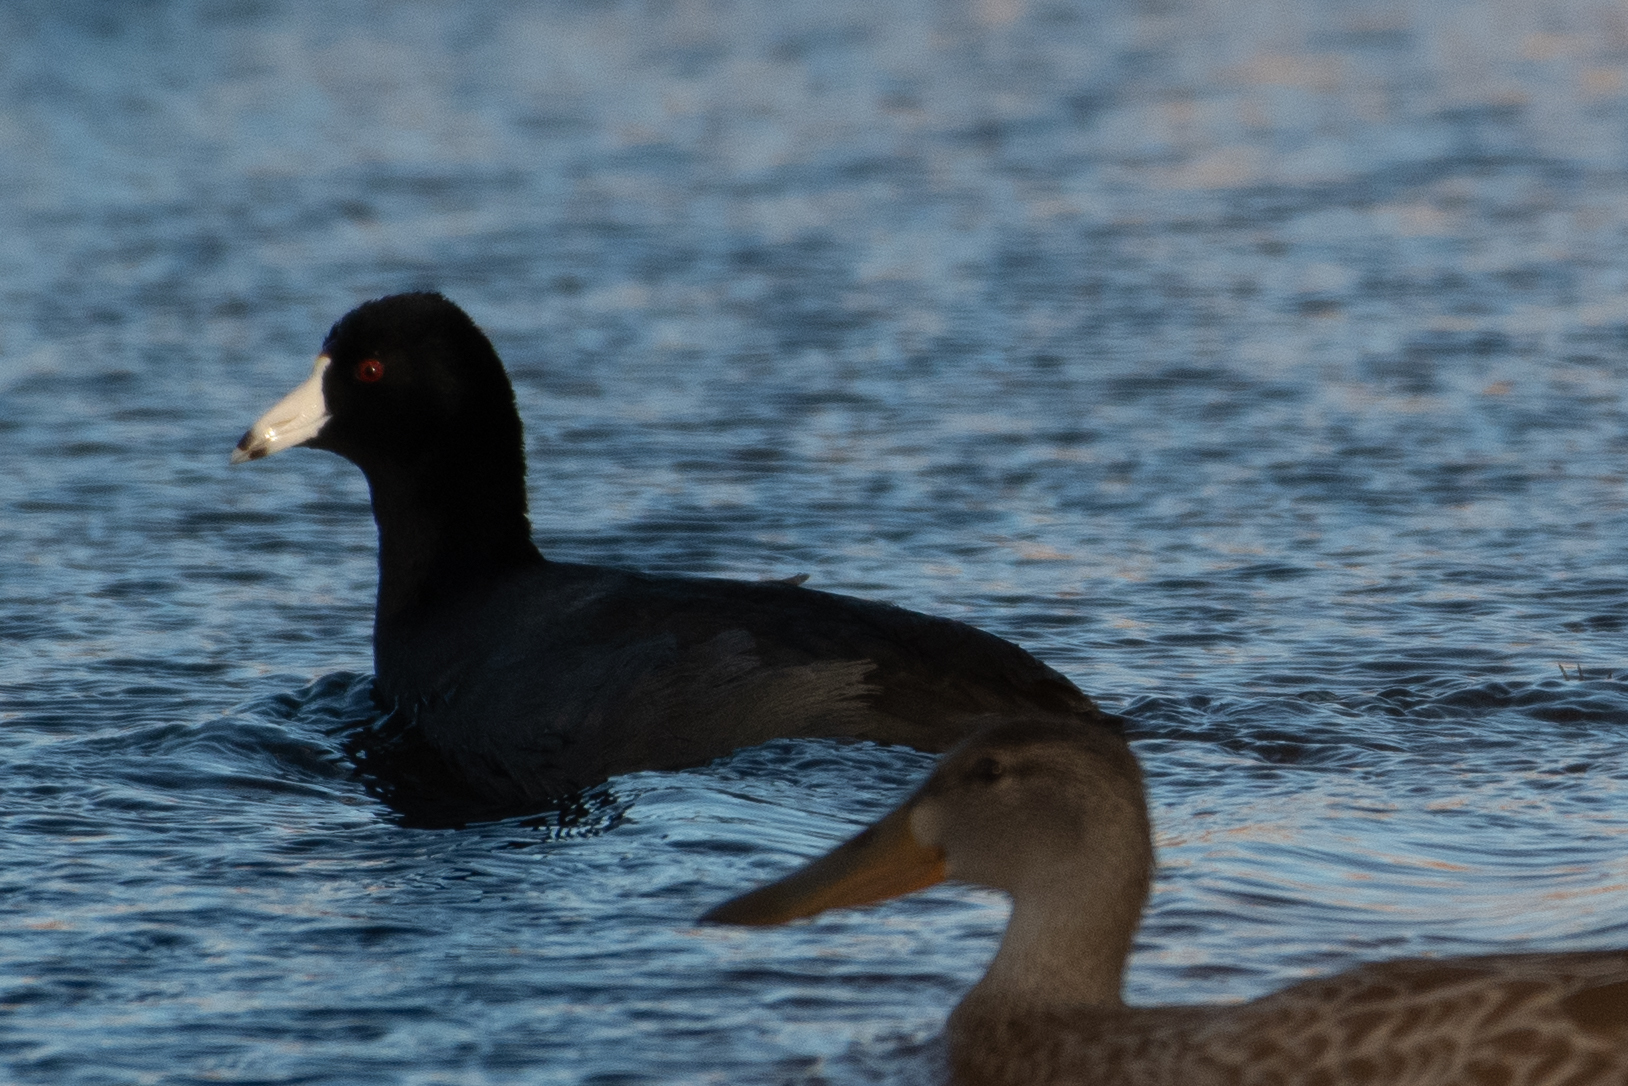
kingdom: Animalia
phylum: Chordata
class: Aves
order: Gruiformes
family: Rallidae
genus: Fulica
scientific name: Fulica americana
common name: American coot
